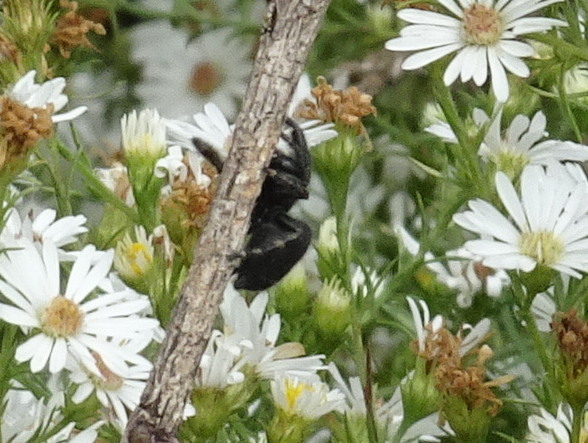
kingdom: Animalia
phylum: Arthropoda
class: Arachnida
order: Araneae
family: Salticidae
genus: Phidippus
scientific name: Phidippus audax
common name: Bold jumper
